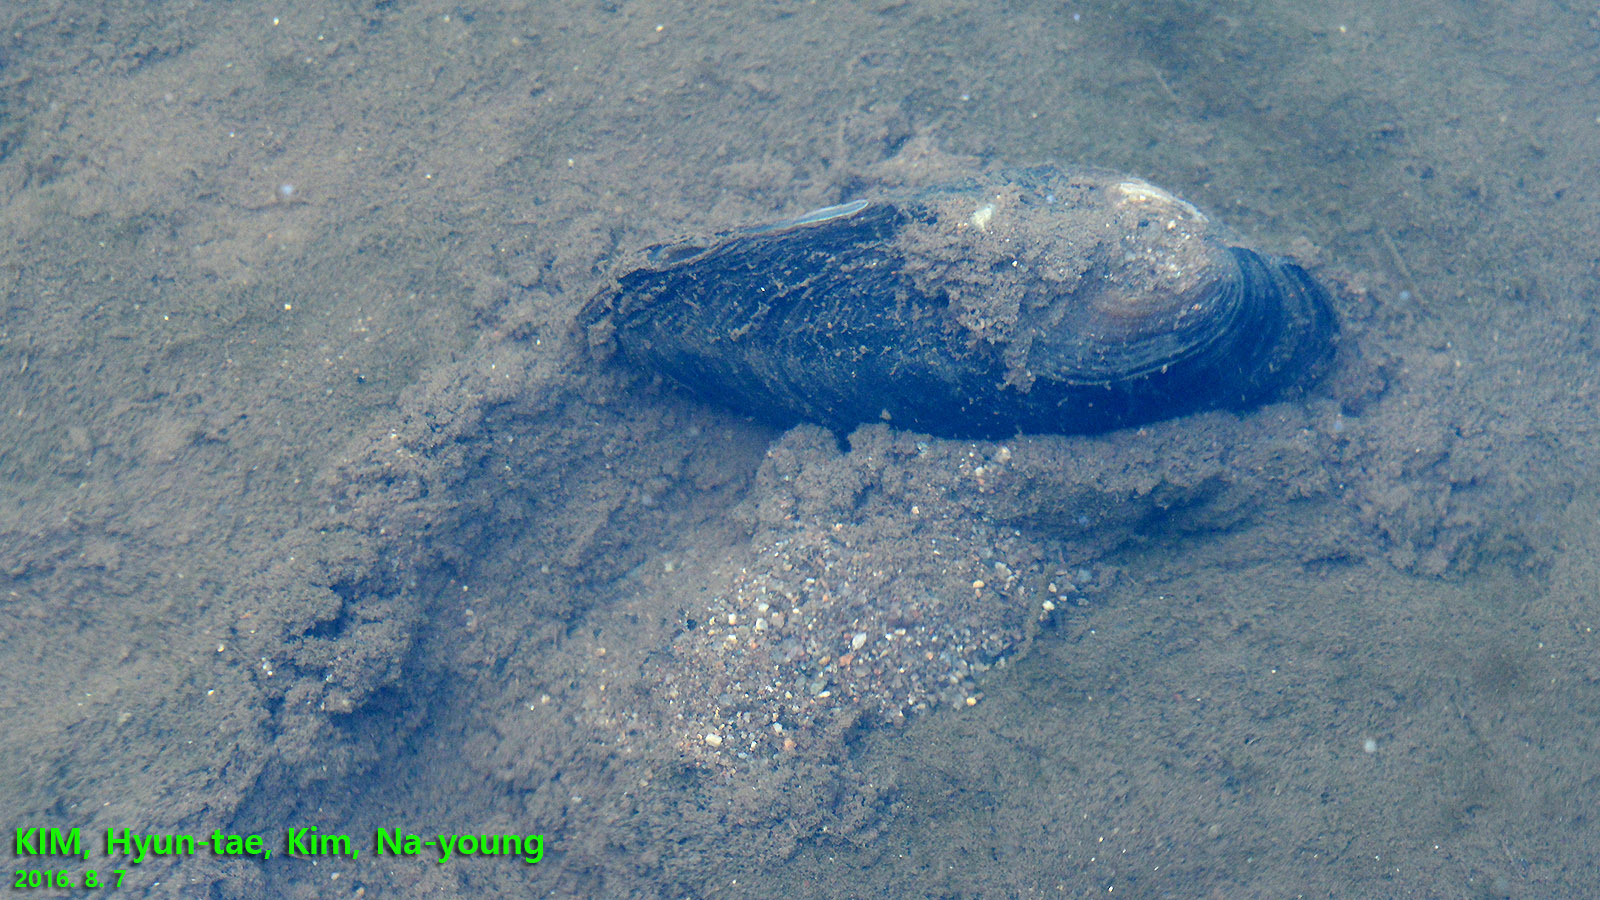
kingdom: Animalia
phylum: Mollusca
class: Bivalvia
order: Unionida
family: Unionidae
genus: Sinanodonta
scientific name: Sinanodonta schrenkii
